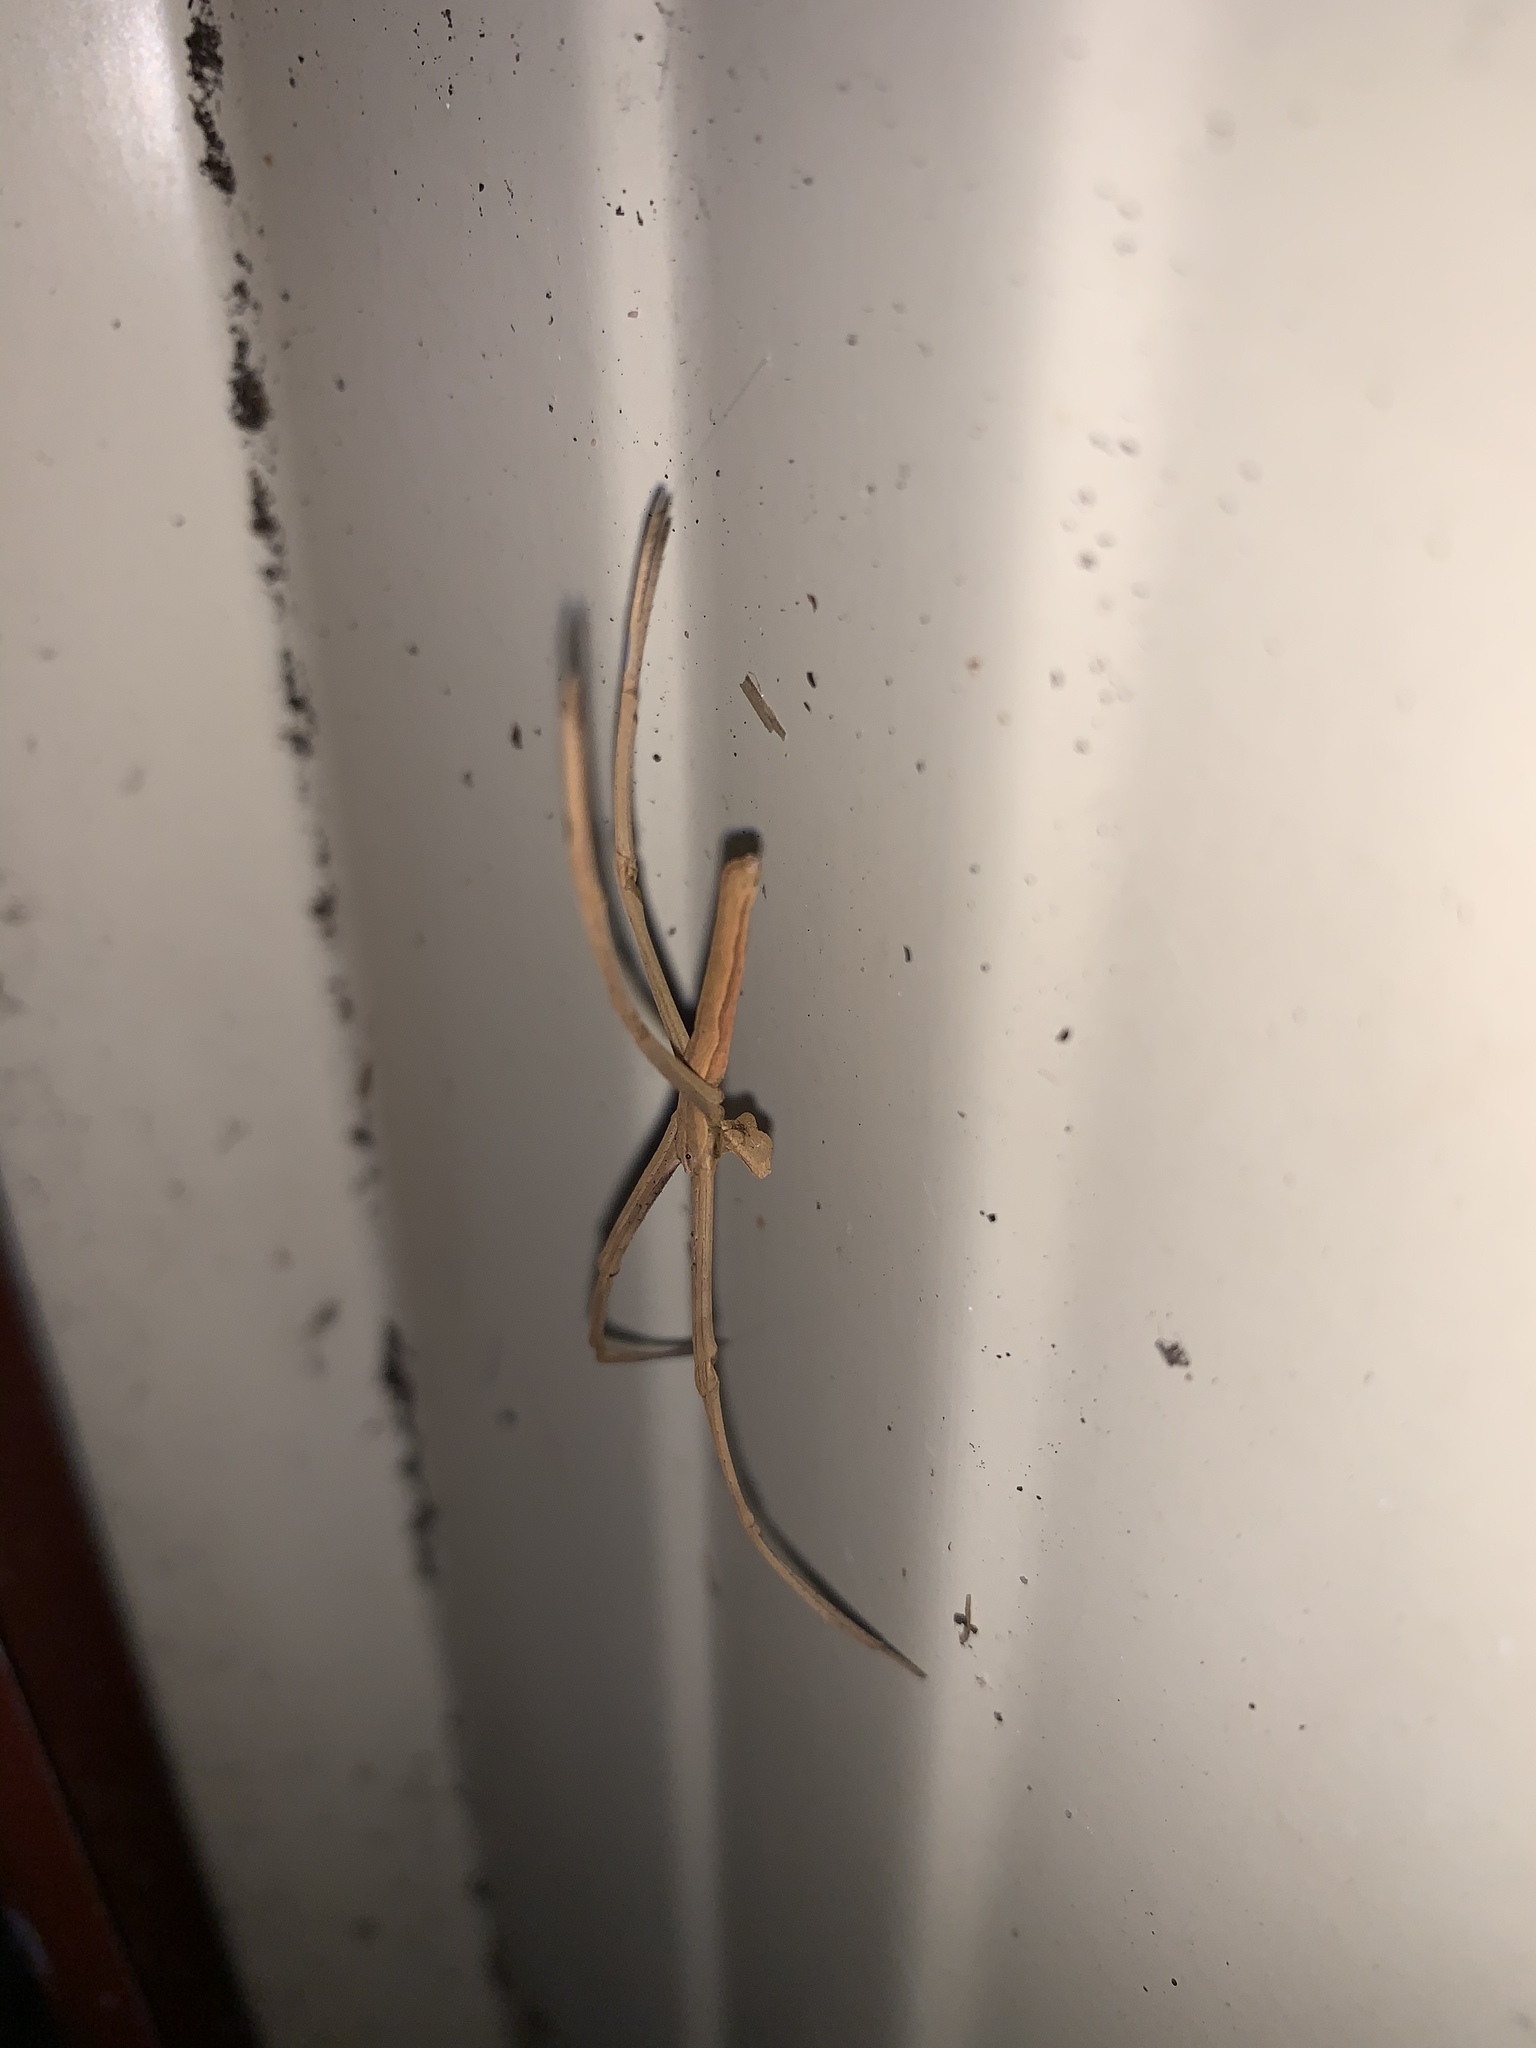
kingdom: Animalia
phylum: Arthropoda
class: Arachnida
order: Araneae
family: Deinopidae
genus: Deinopis
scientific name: Deinopis subrufa
